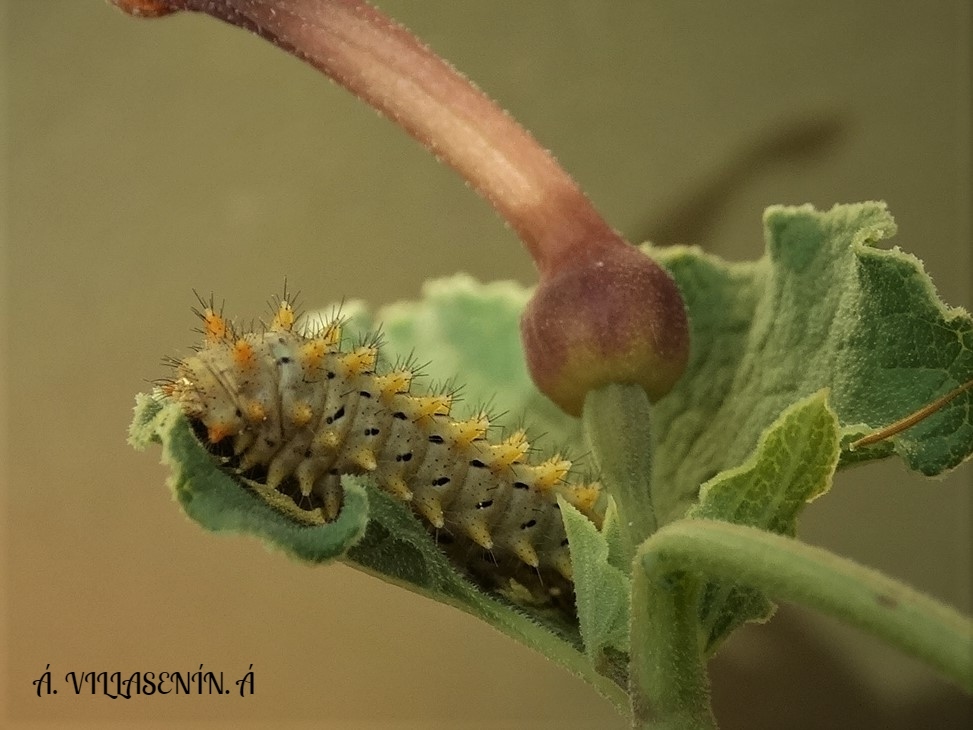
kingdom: Animalia
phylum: Arthropoda
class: Insecta
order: Lepidoptera
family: Papilionidae
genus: Zerynthia
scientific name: Zerynthia rumina
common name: Spanish festoon
